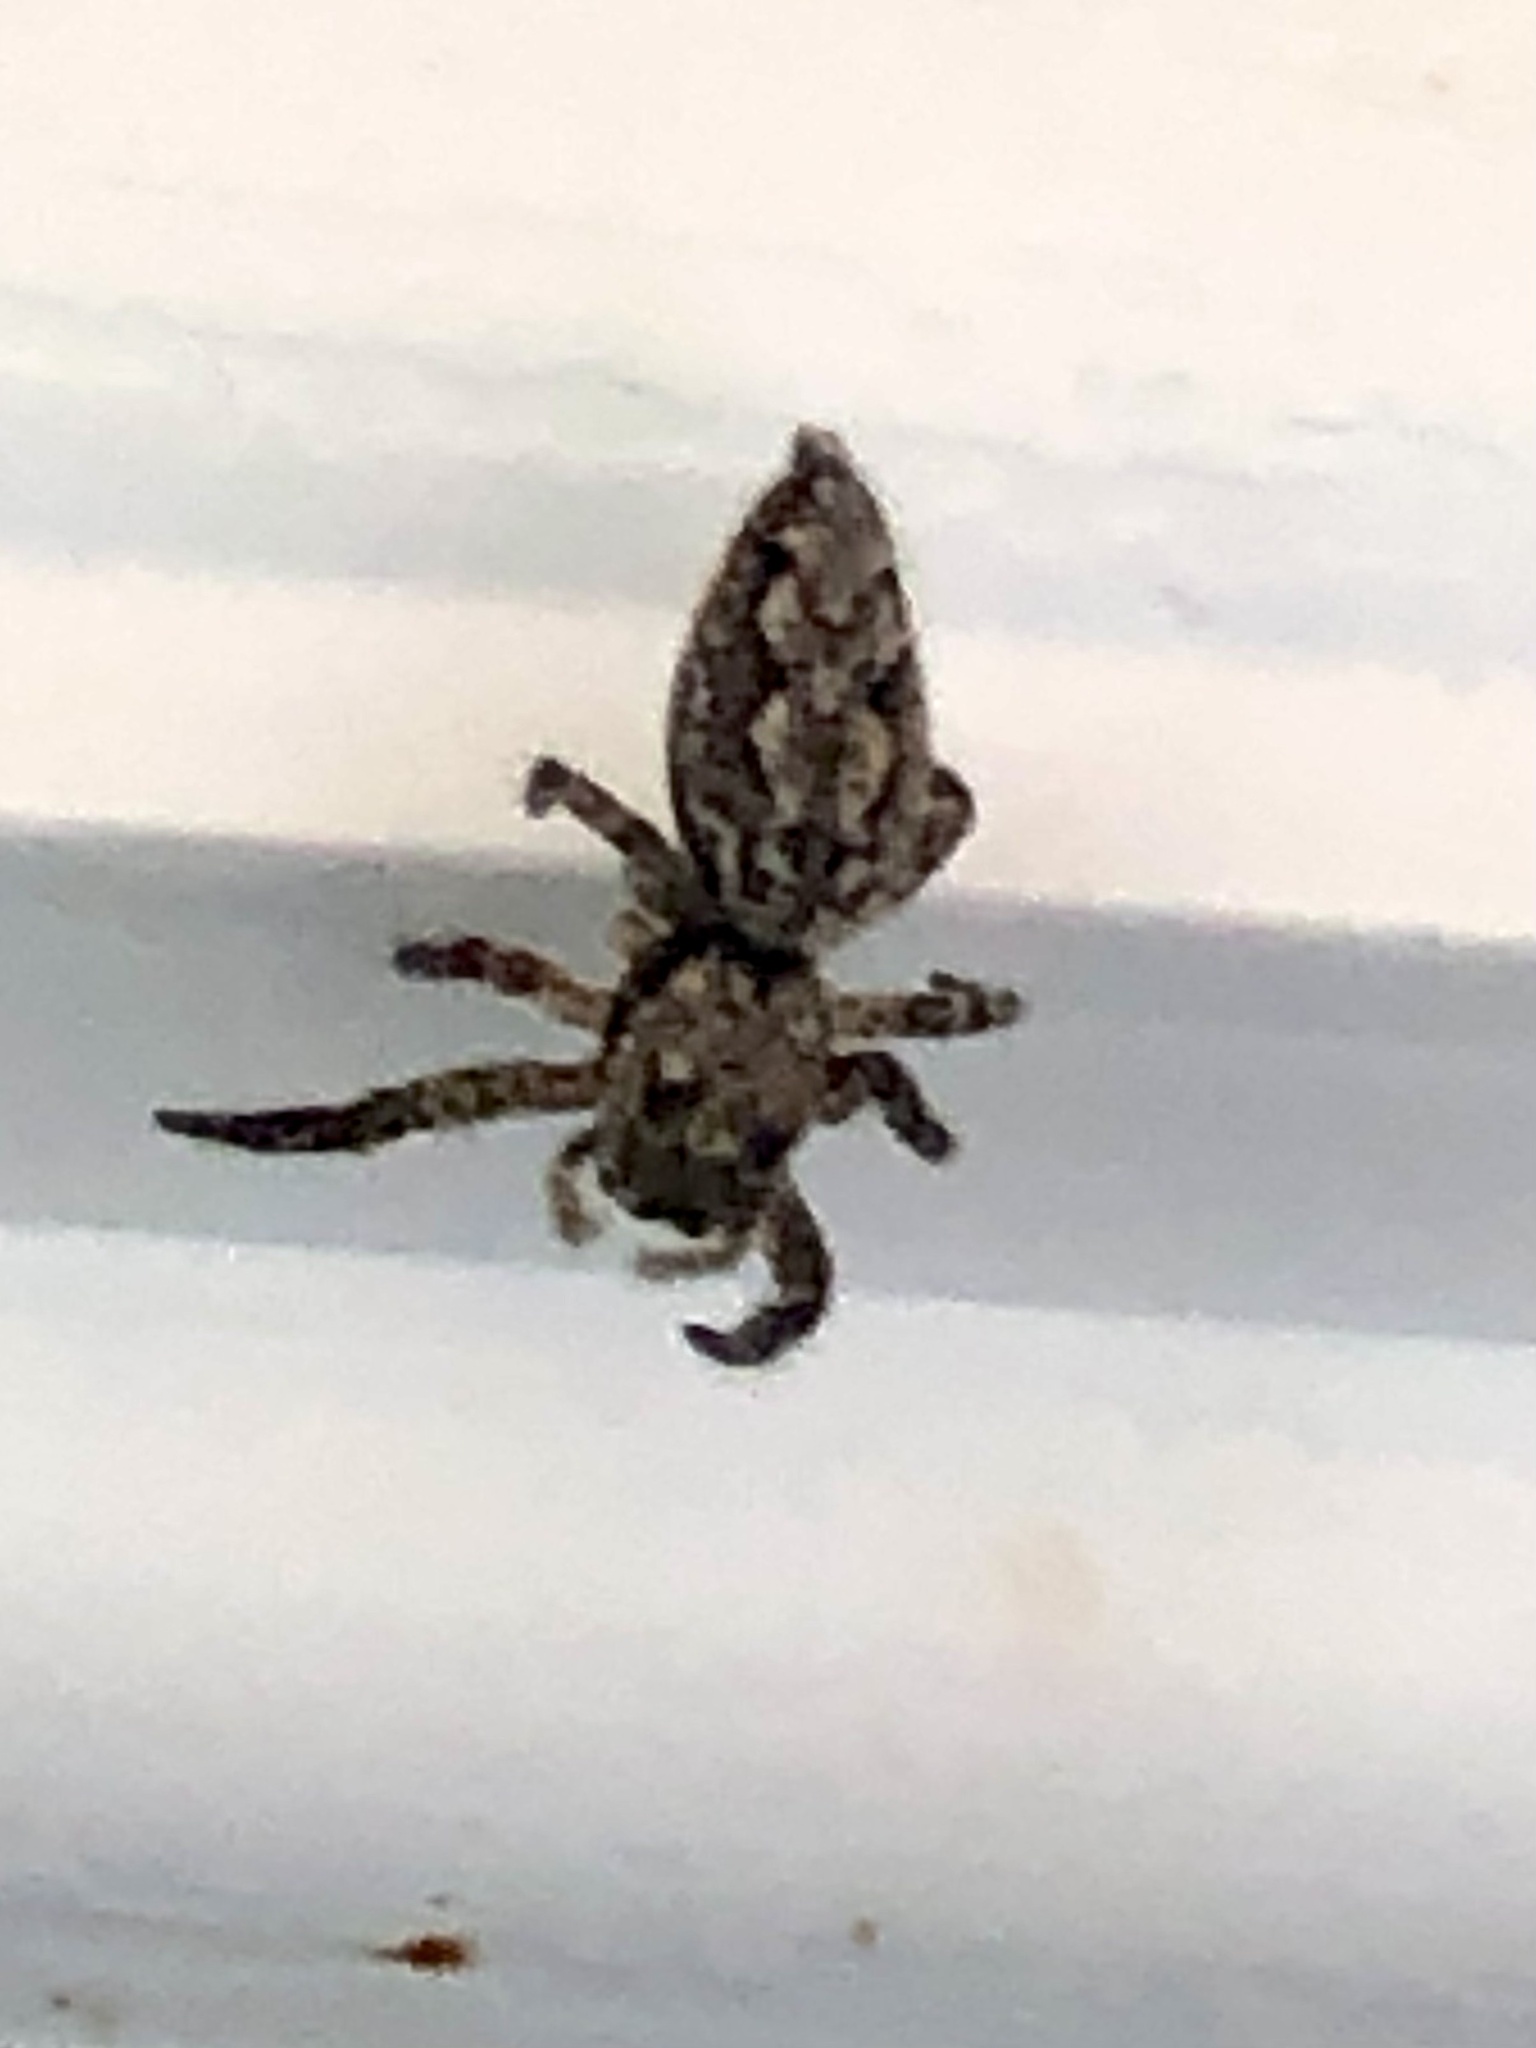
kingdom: Animalia
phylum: Arthropoda
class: Arachnida
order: Araneae
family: Salticidae
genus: Platycryptus
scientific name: Platycryptus undatus
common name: Tan jumping spider
